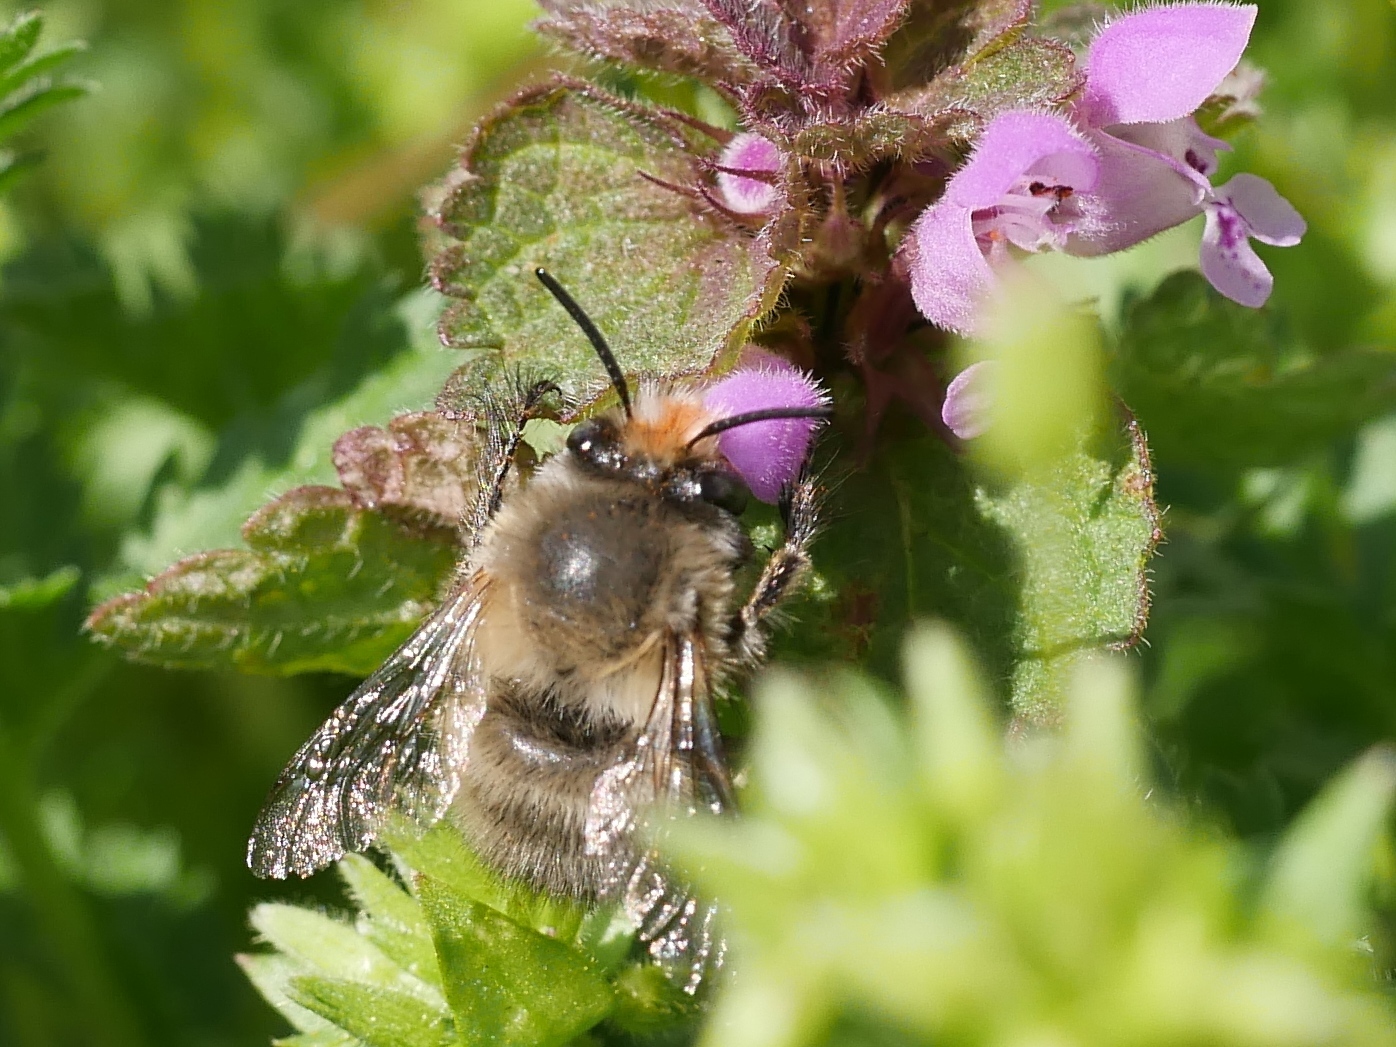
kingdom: Animalia
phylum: Arthropoda
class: Insecta
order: Hymenoptera
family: Apidae
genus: Anthophora
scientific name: Anthophora plumipes
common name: Hairy-footed flower bee
